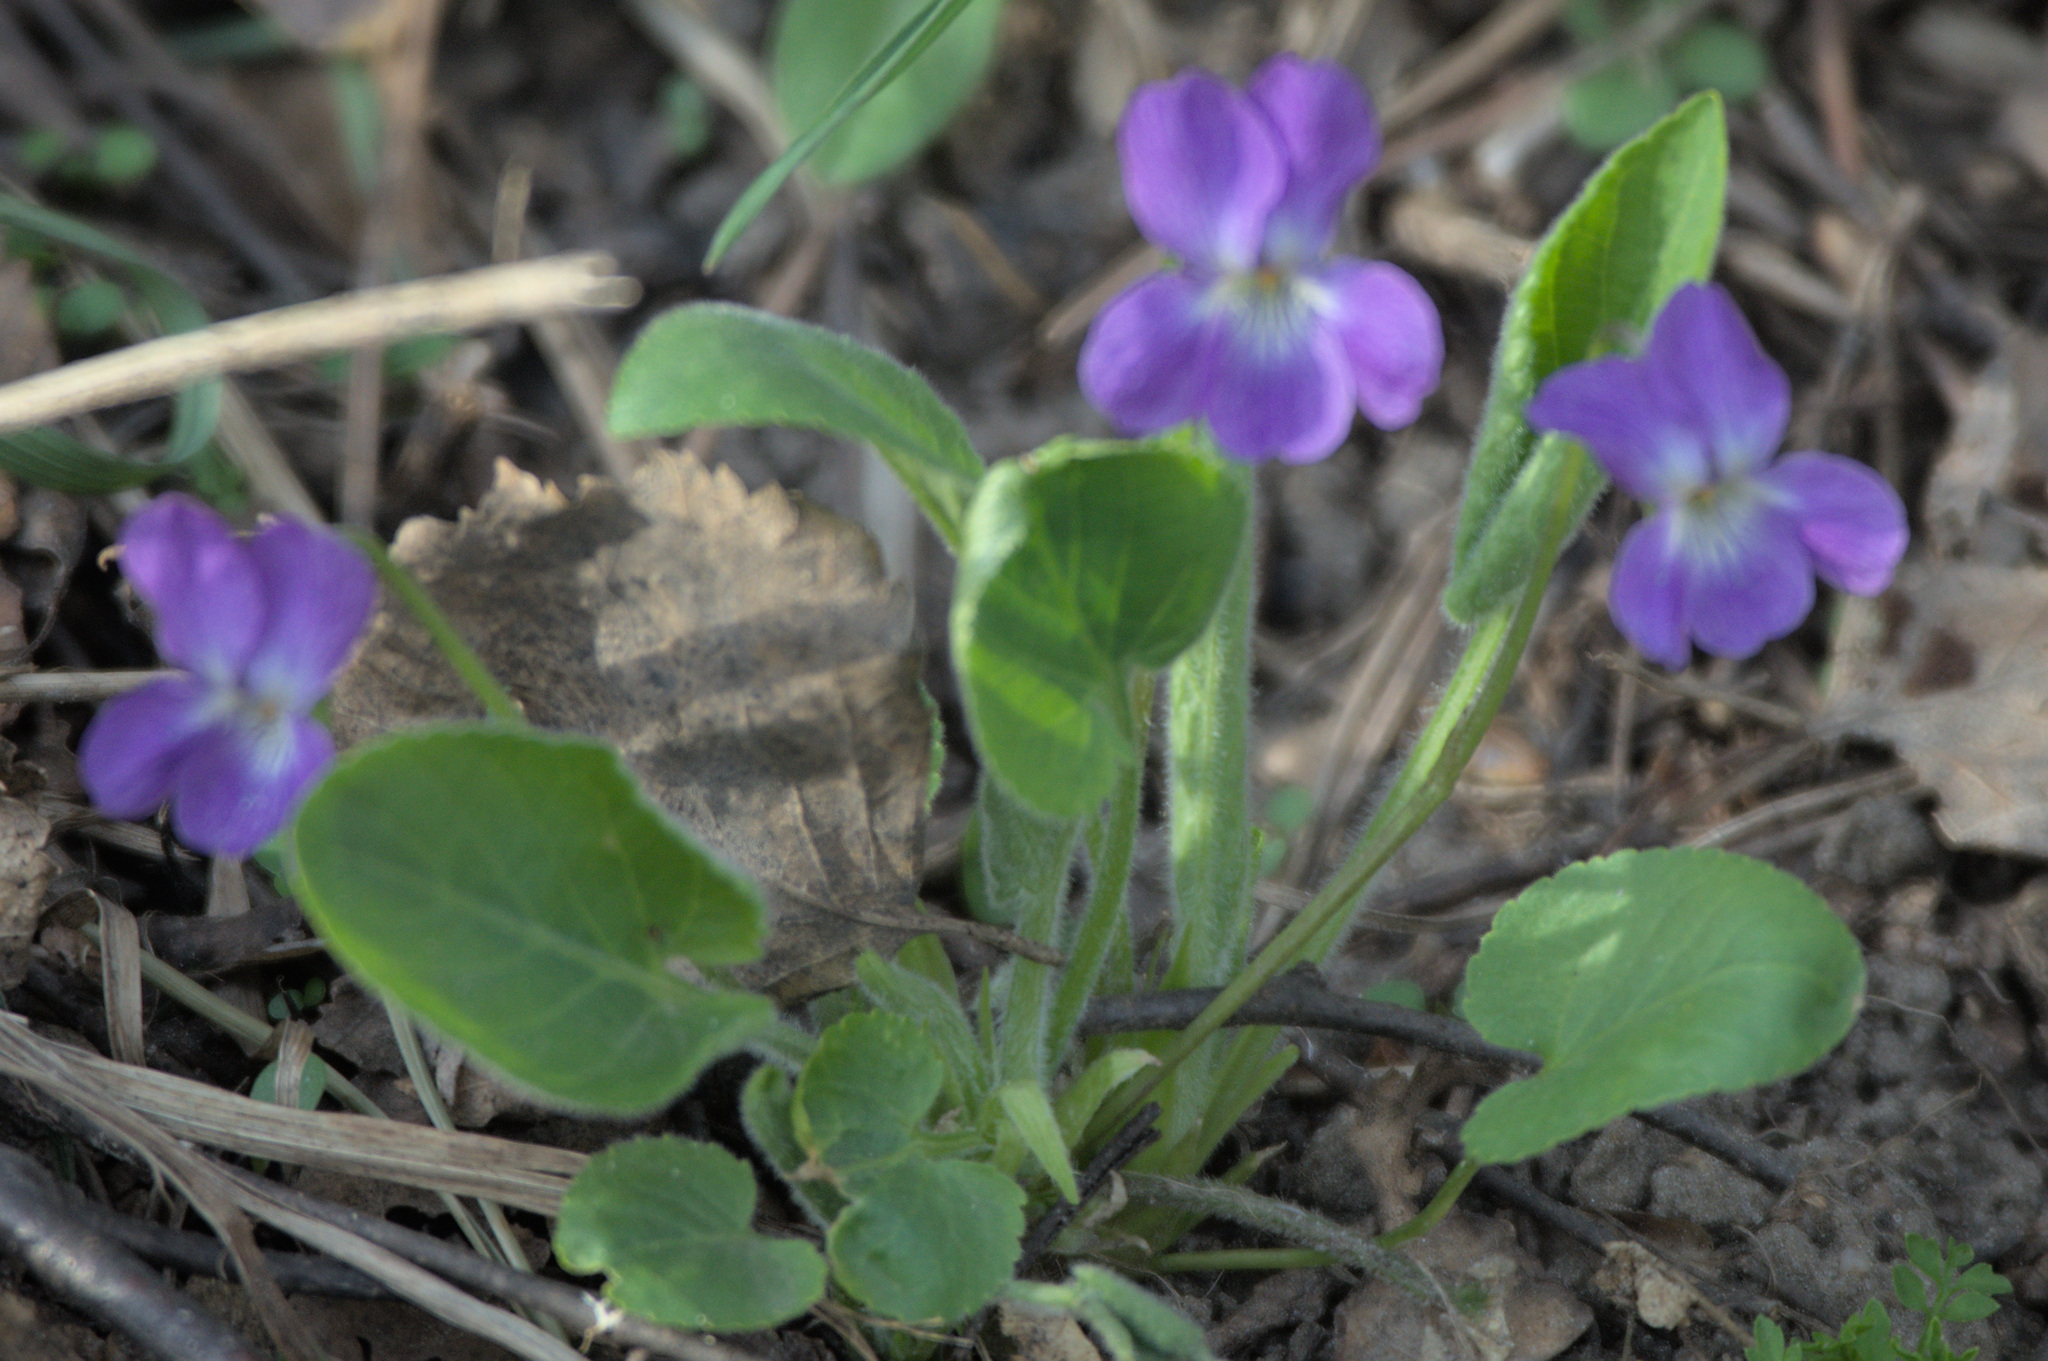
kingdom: Plantae
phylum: Tracheophyta
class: Magnoliopsida
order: Malpighiales
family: Violaceae
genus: Viola
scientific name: Viola hirta
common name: Hairy violet
